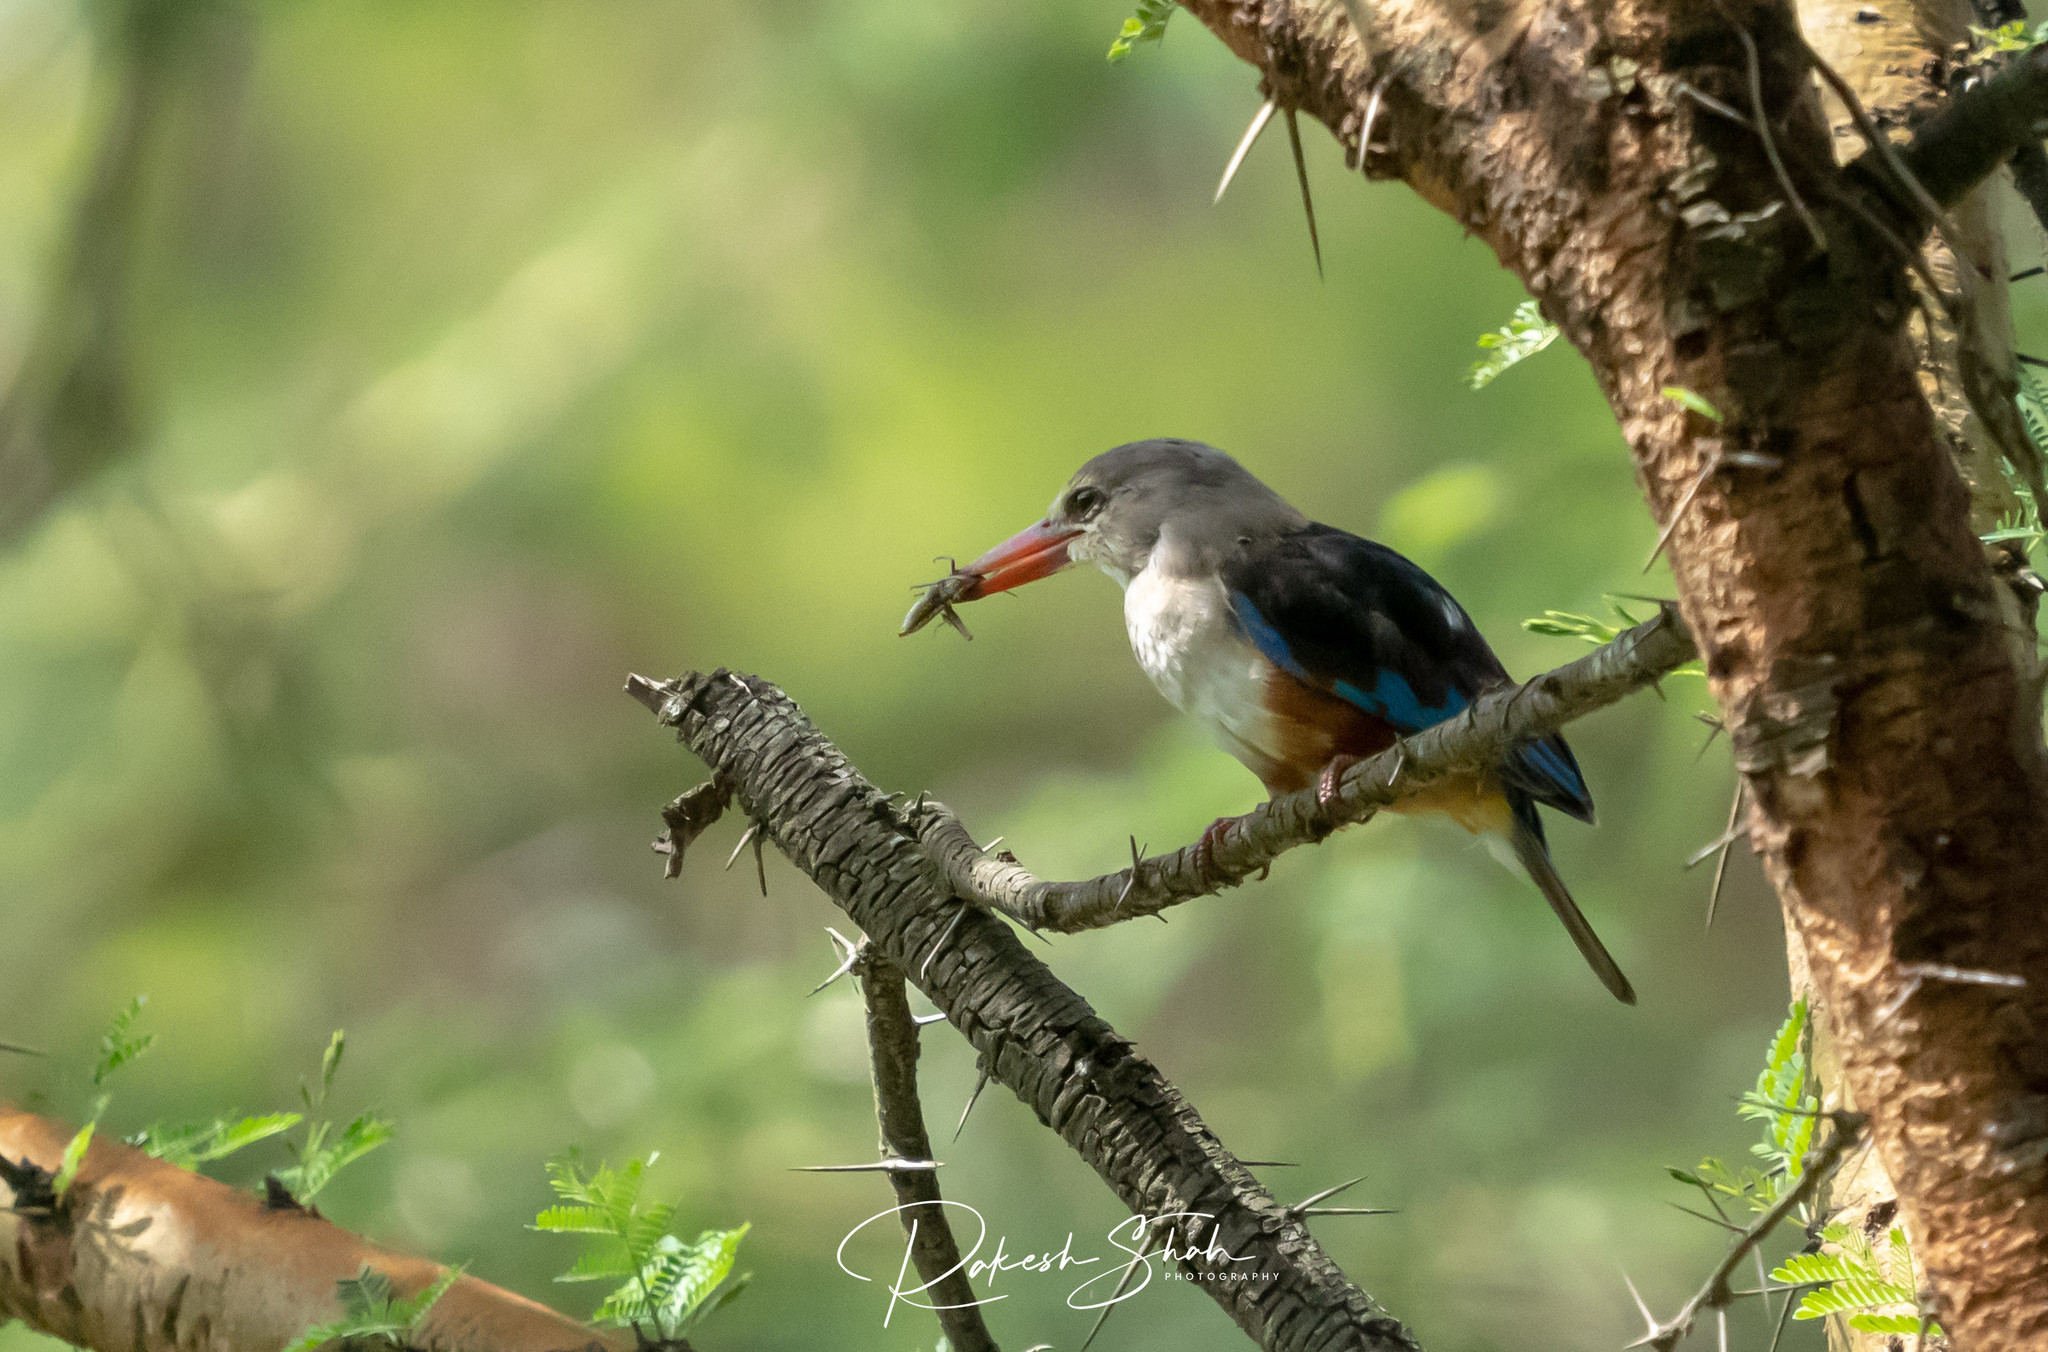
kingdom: Animalia
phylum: Chordata
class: Aves
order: Coraciiformes
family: Alcedinidae
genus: Halcyon
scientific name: Halcyon leucocephala
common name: Grey-headed kingfisher
